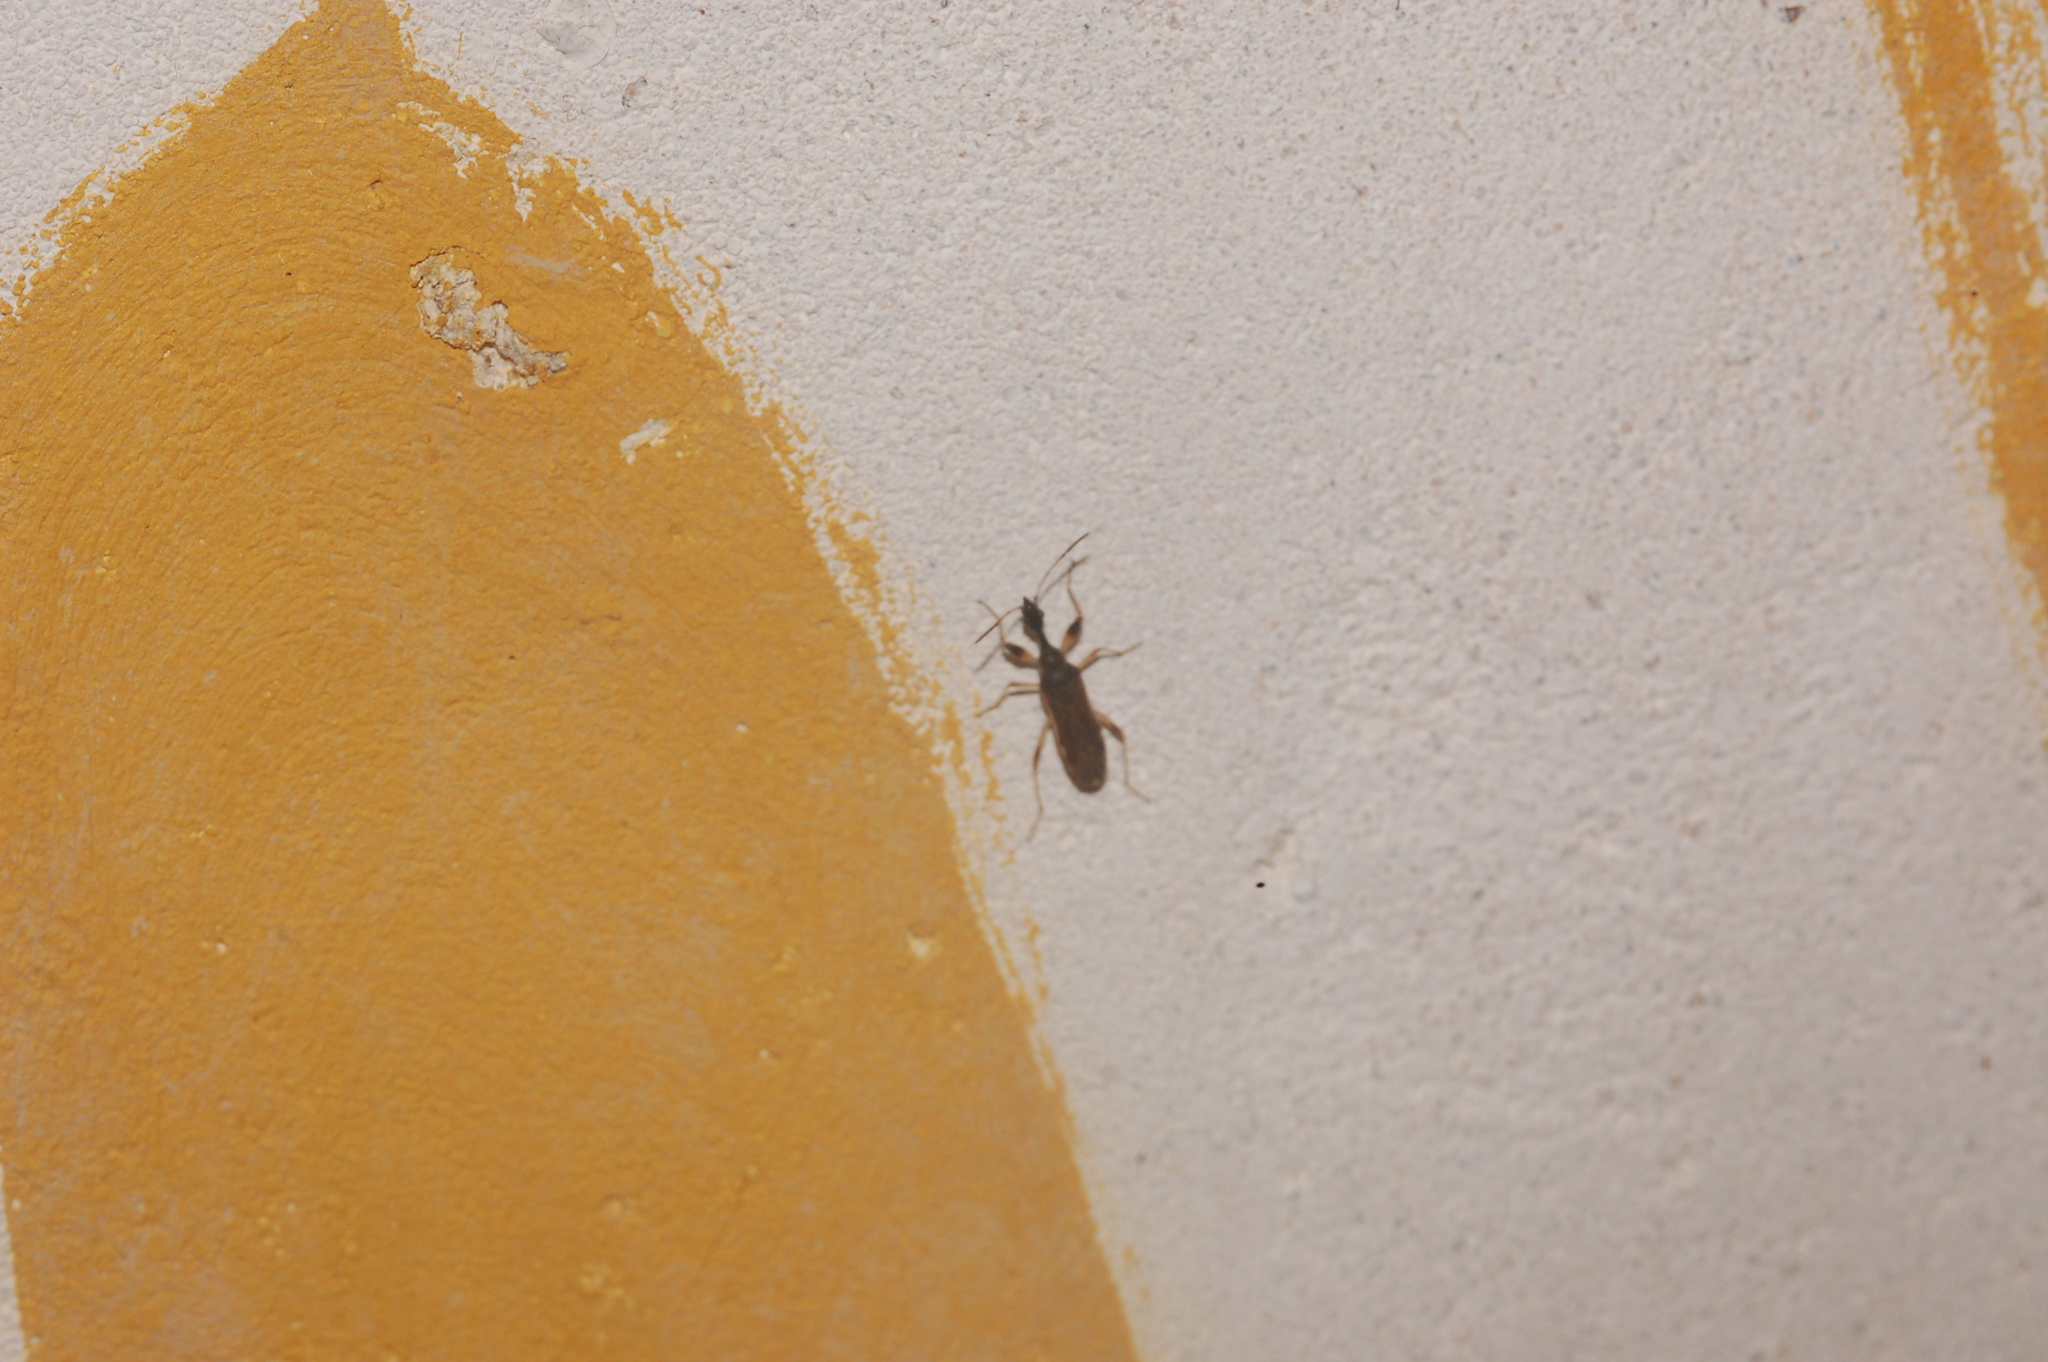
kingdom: Animalia
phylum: Arthropoda
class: Insecta
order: Hemiptera
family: Rhyparochromidae
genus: Myodocha
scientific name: Myodocha serripes
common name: Long-necked seed bug
